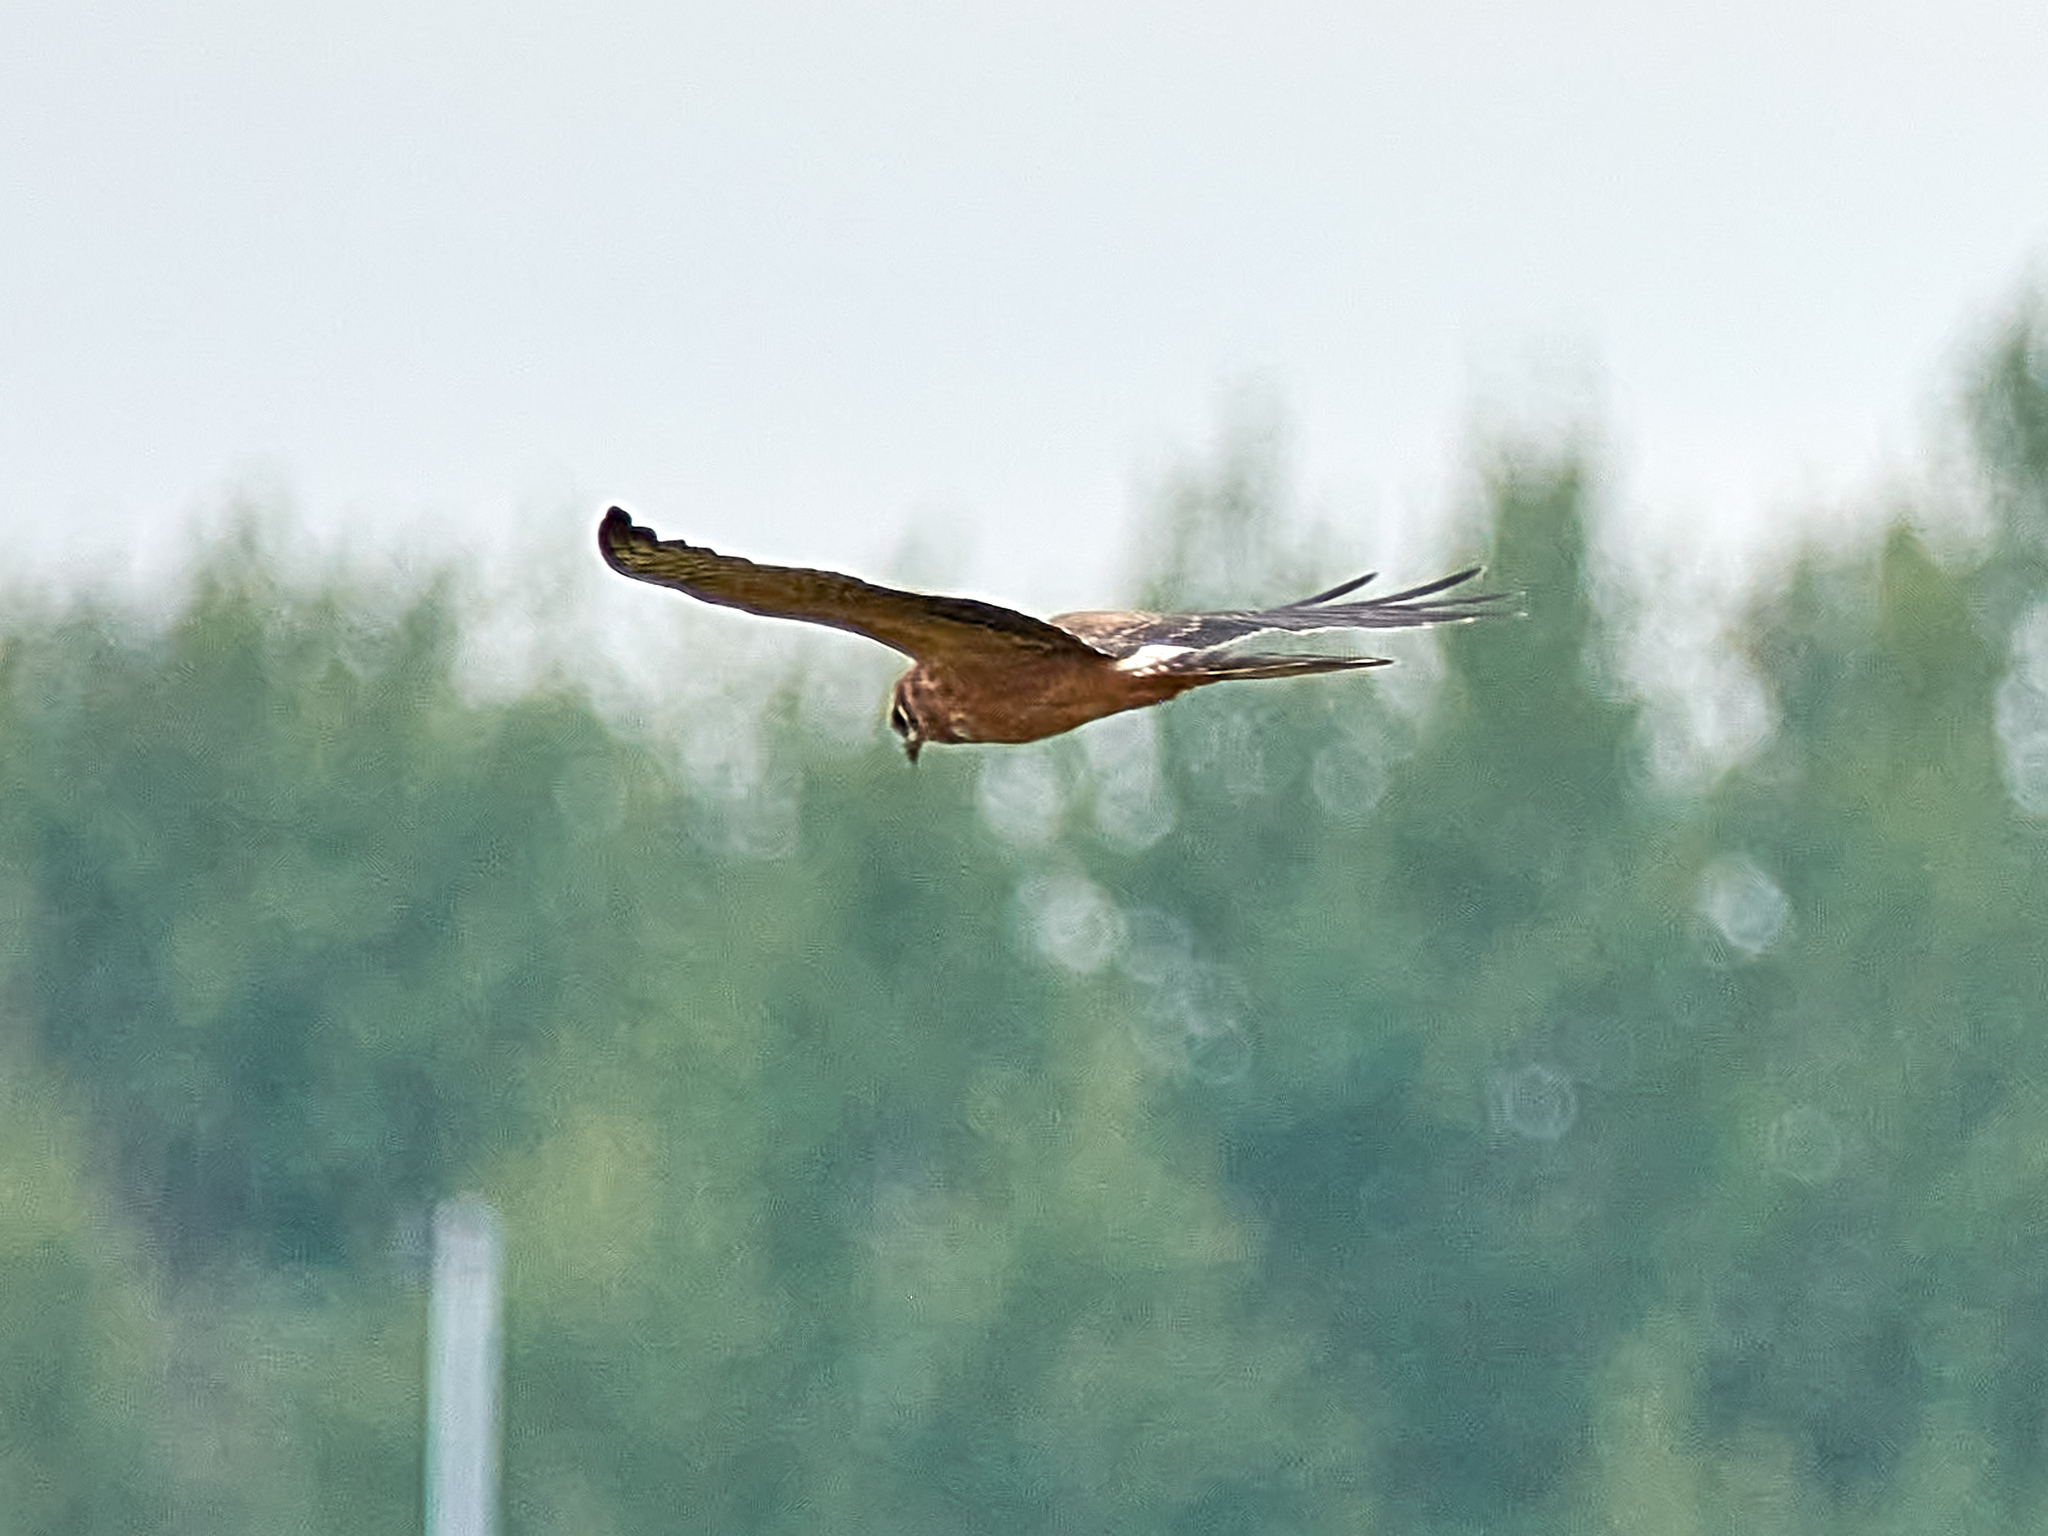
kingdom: Animalia
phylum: Chordata
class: Aves
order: Accipitriformes
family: Accipitridae
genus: Circus
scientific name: Circus pygargus
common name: Montagu's harrier
